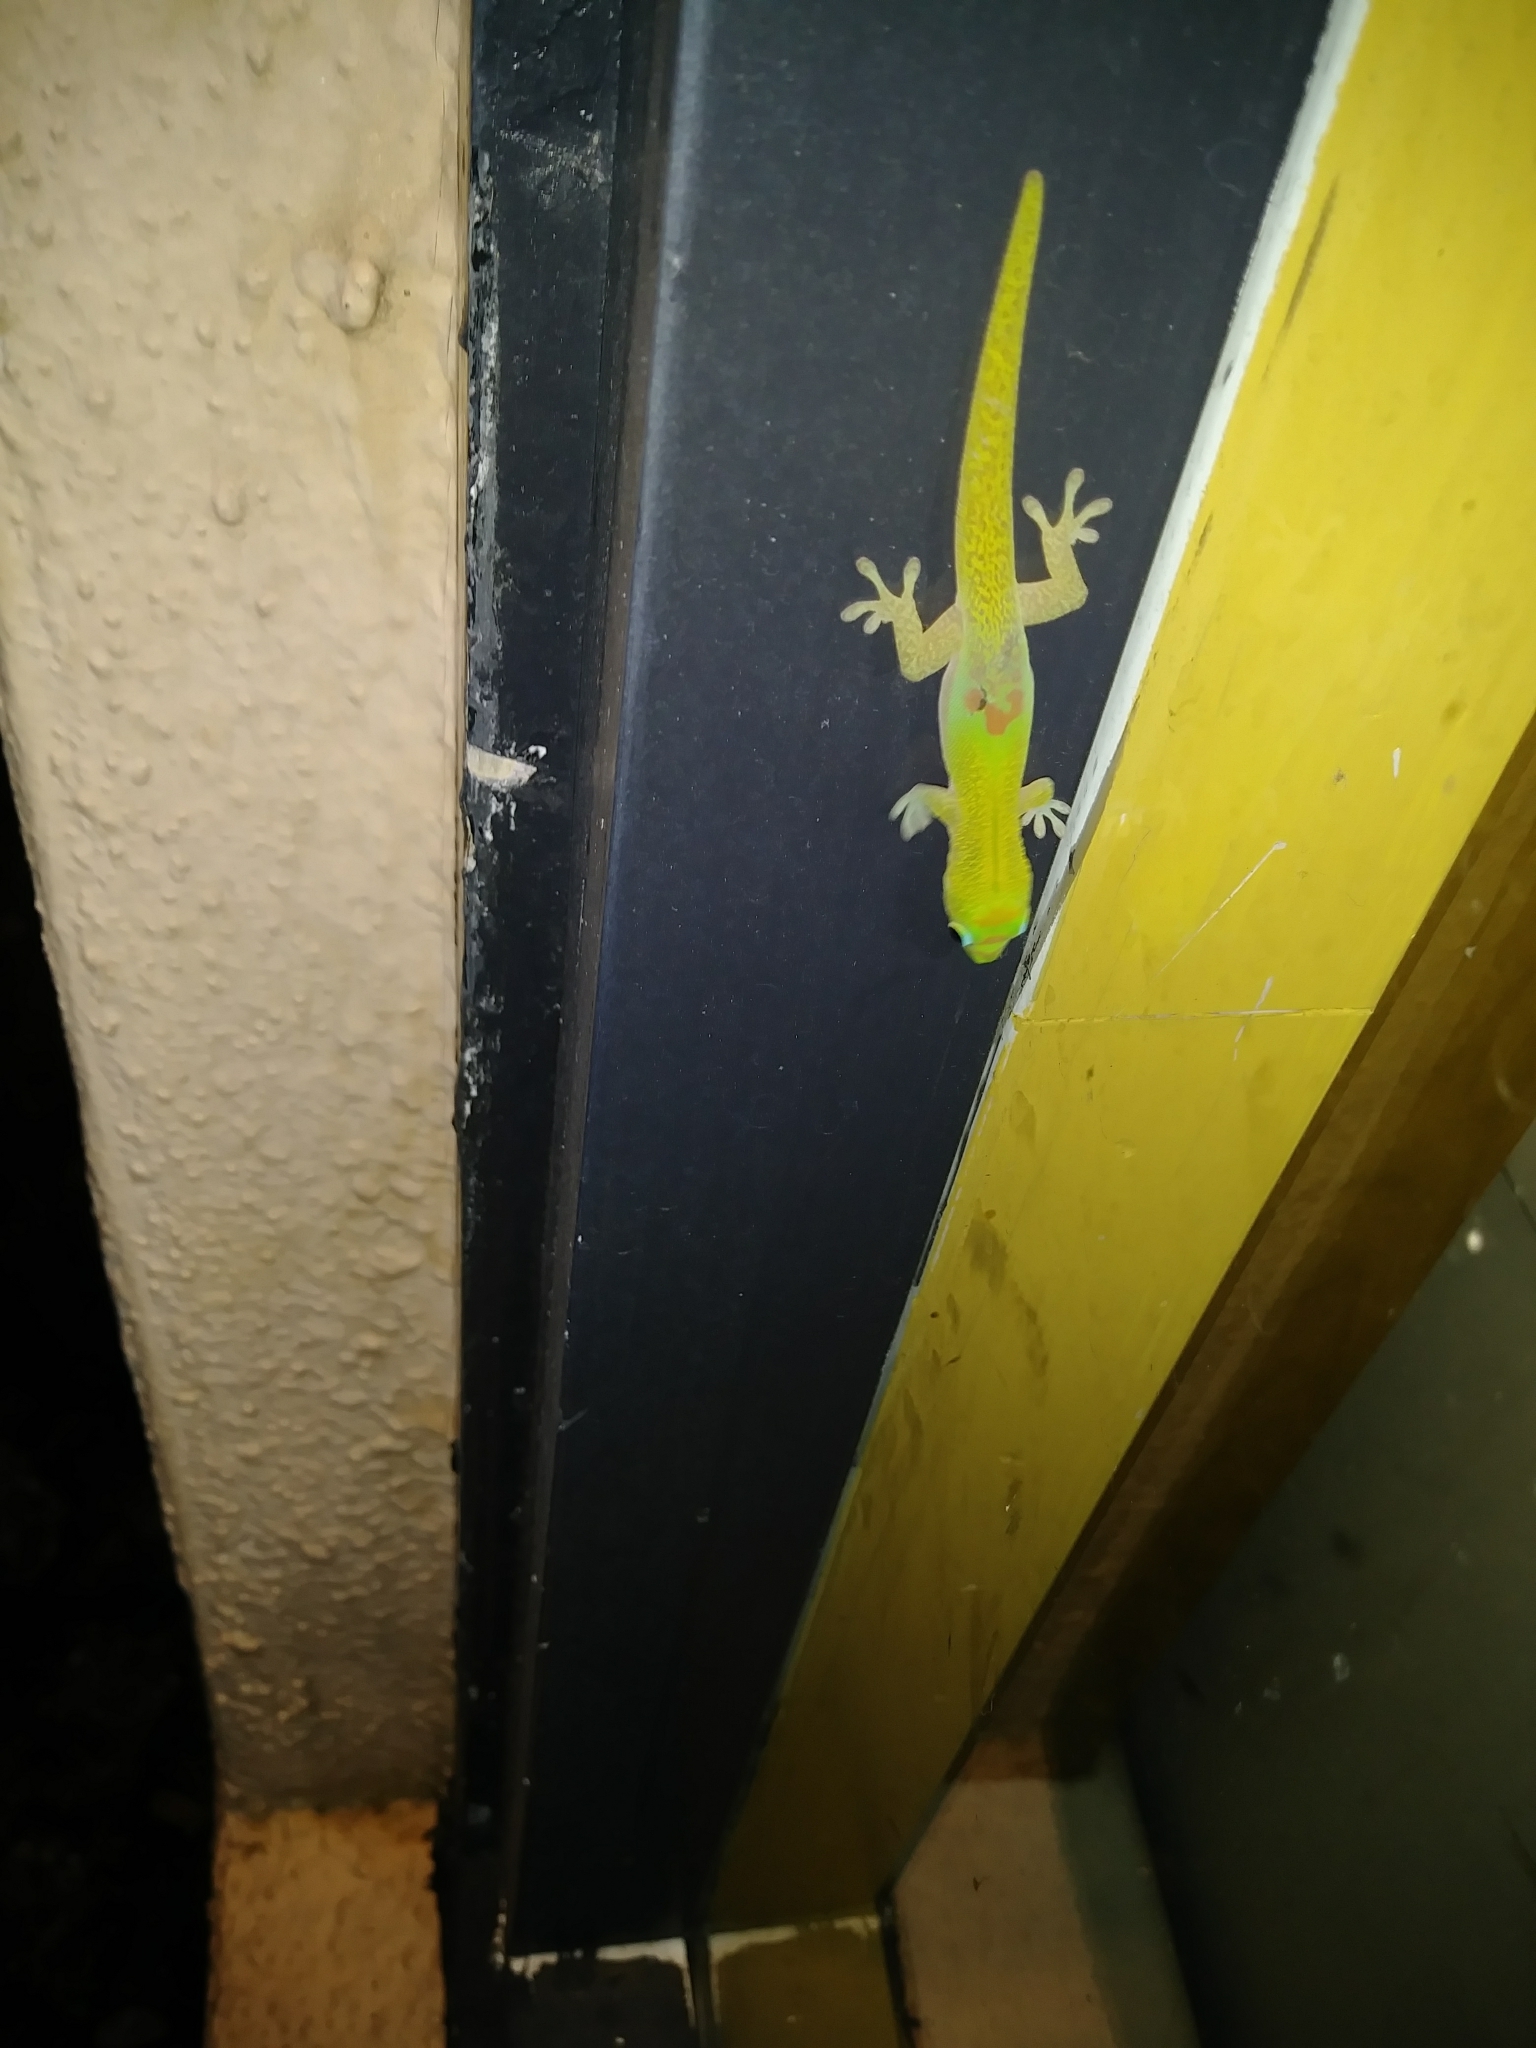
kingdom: Animalia
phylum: Chordata
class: Squamata
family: Gekkonidae
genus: Phelsuma
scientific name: Phelsuma laticauda
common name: Gold dust day gecko
